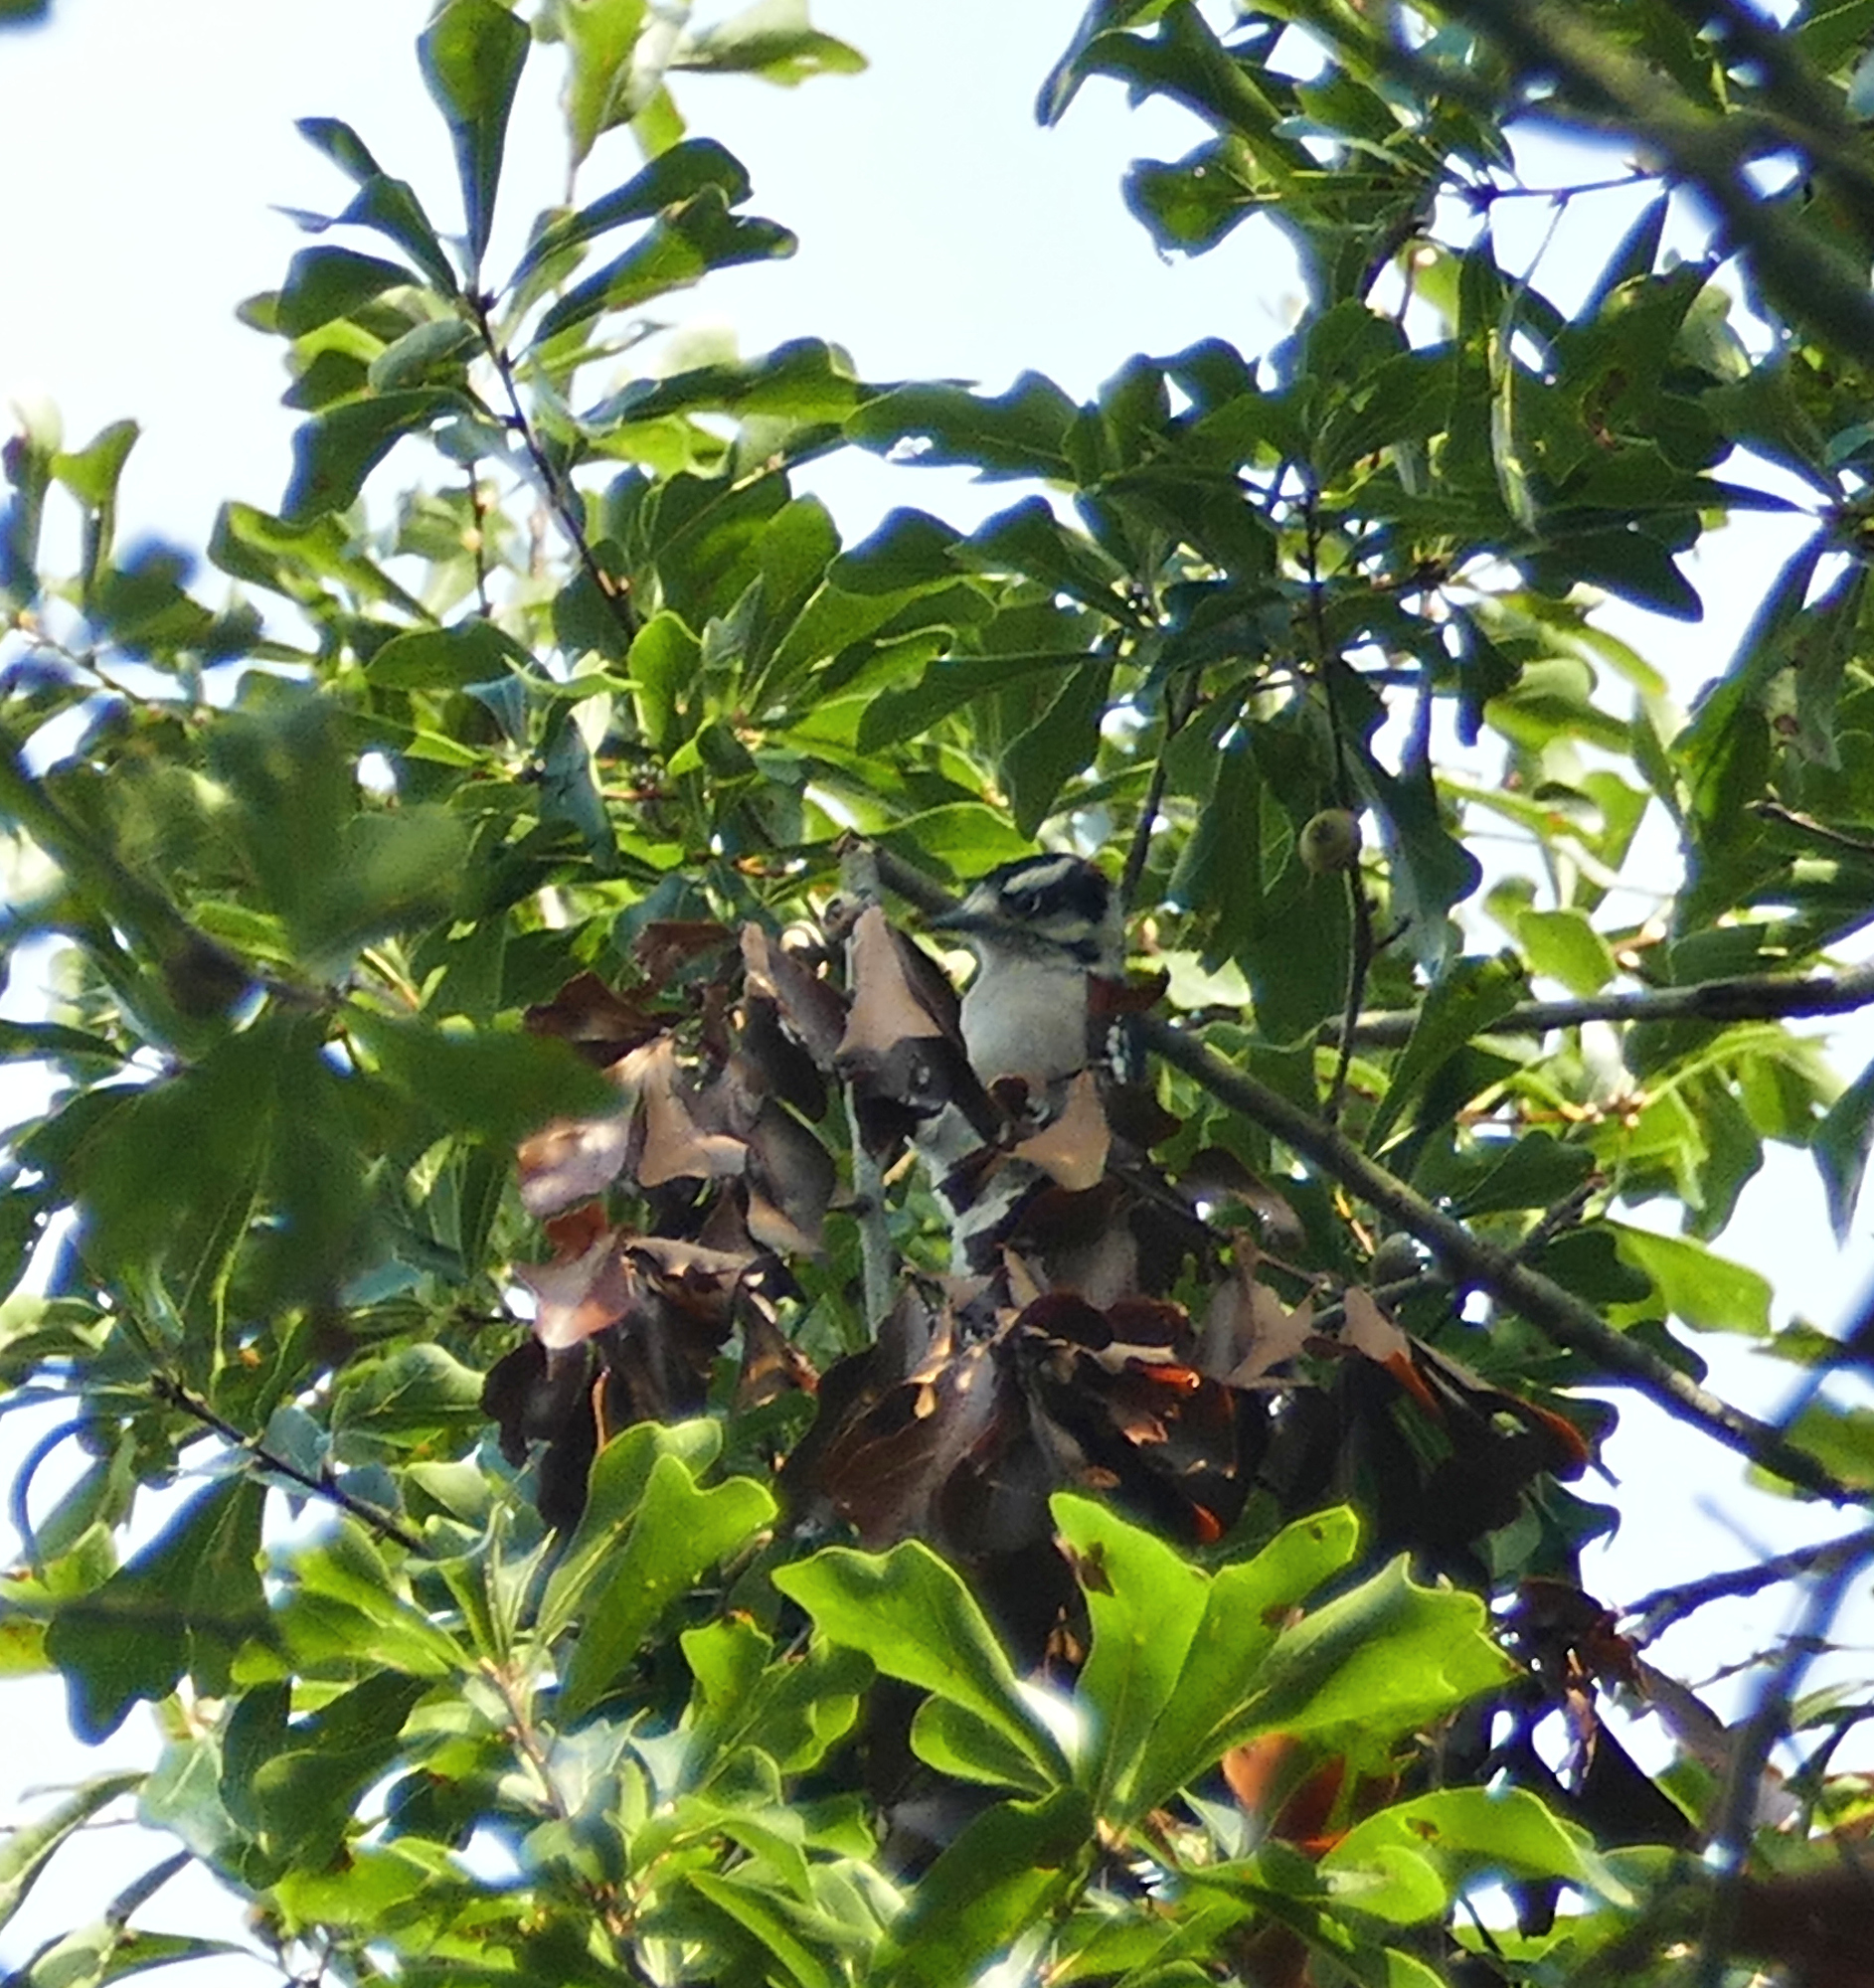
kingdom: Animalia
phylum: Chordata
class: Aves
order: Piciformes
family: Picidae
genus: Dryobates
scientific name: Dryobates pubescens
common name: Downy woodpecker
